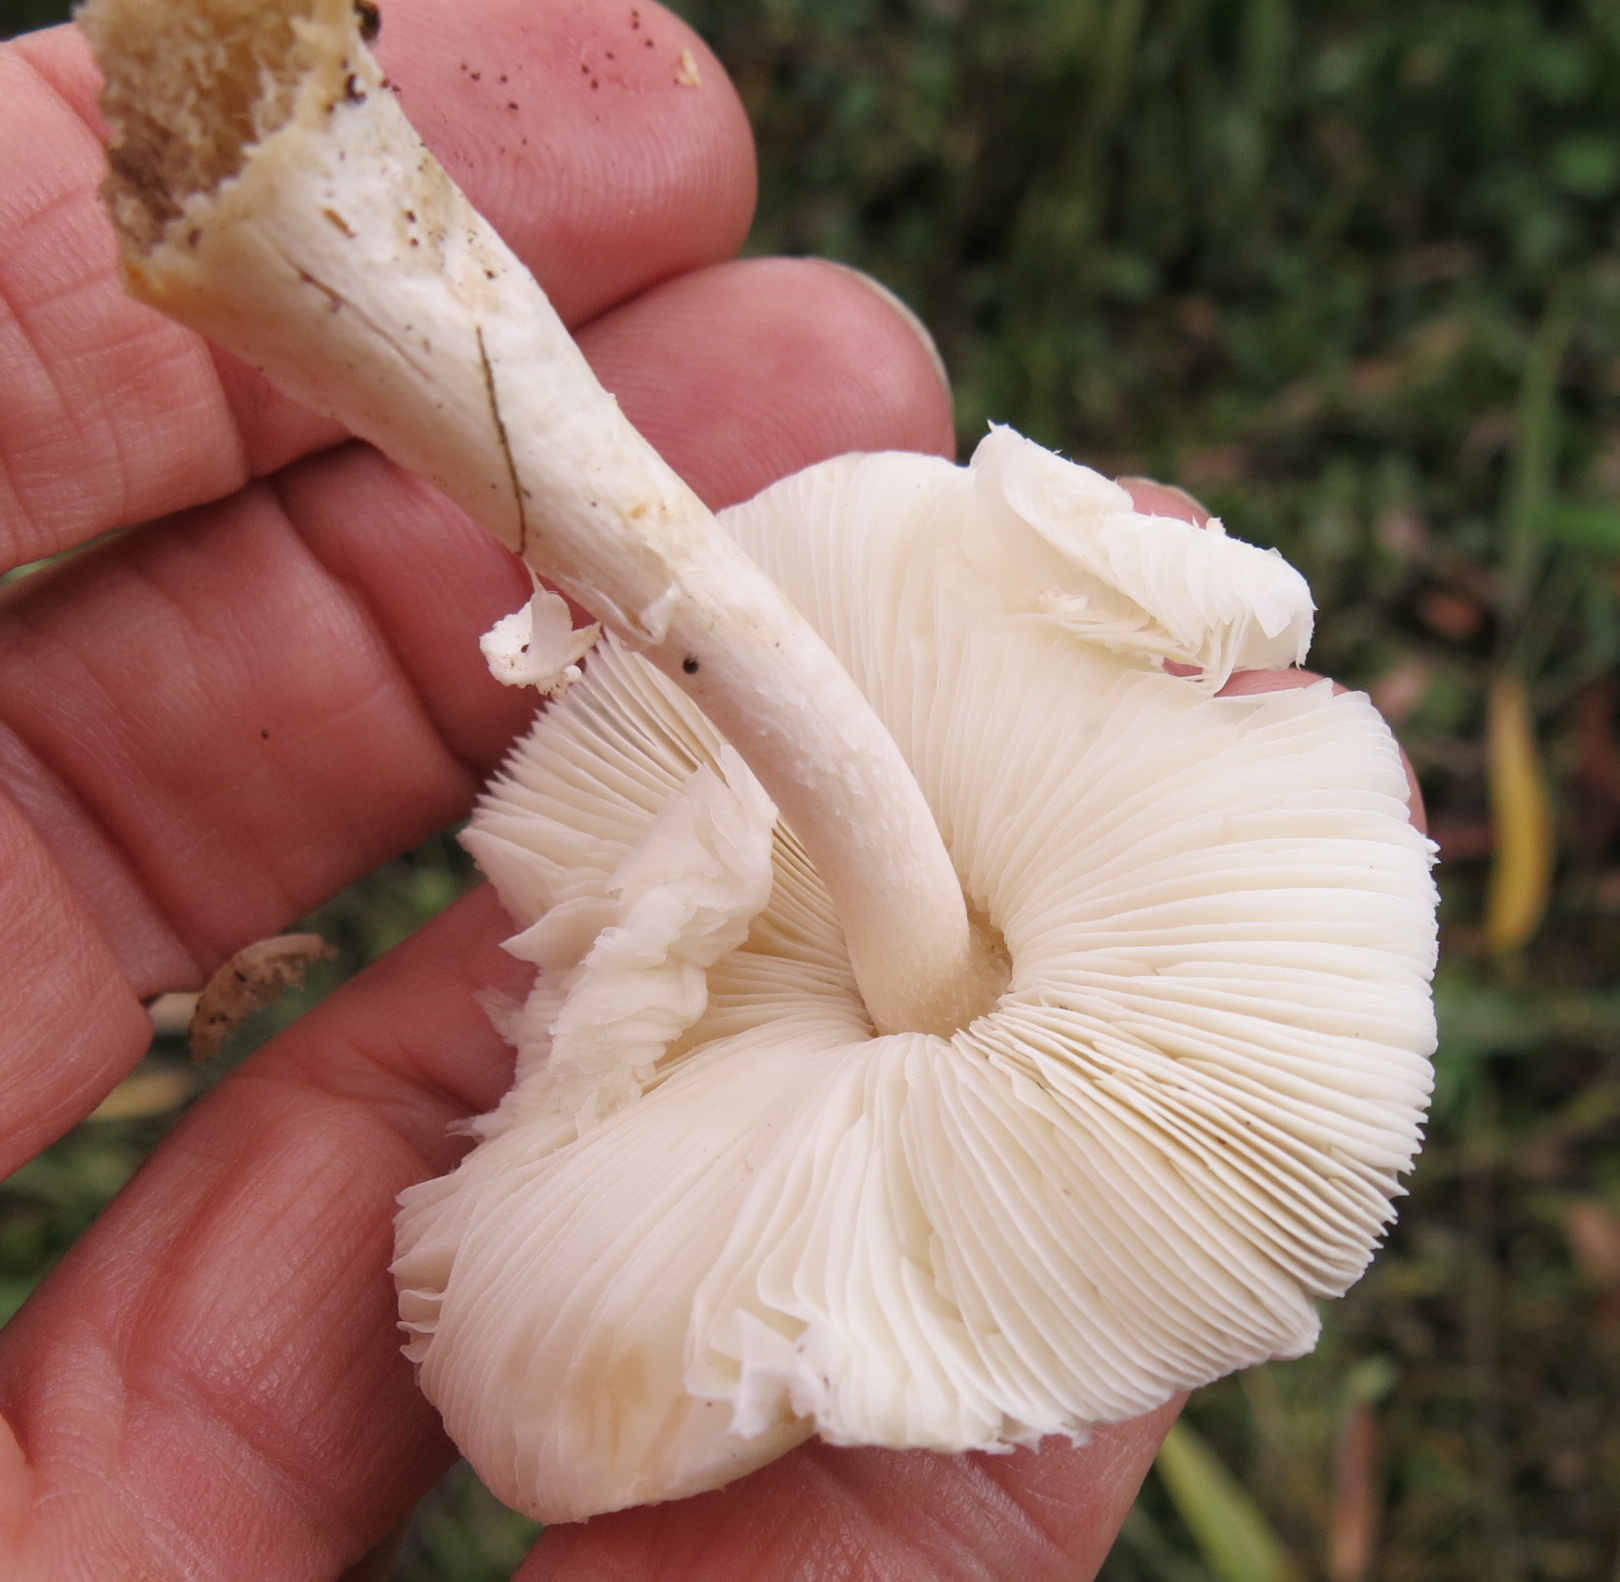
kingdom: Fungi
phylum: Basidiomycota
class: Agaricomycetes
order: Agaricales
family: Agaricaceae
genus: Lepiota
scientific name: Lepiota cristata
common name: Stinking dapperling
